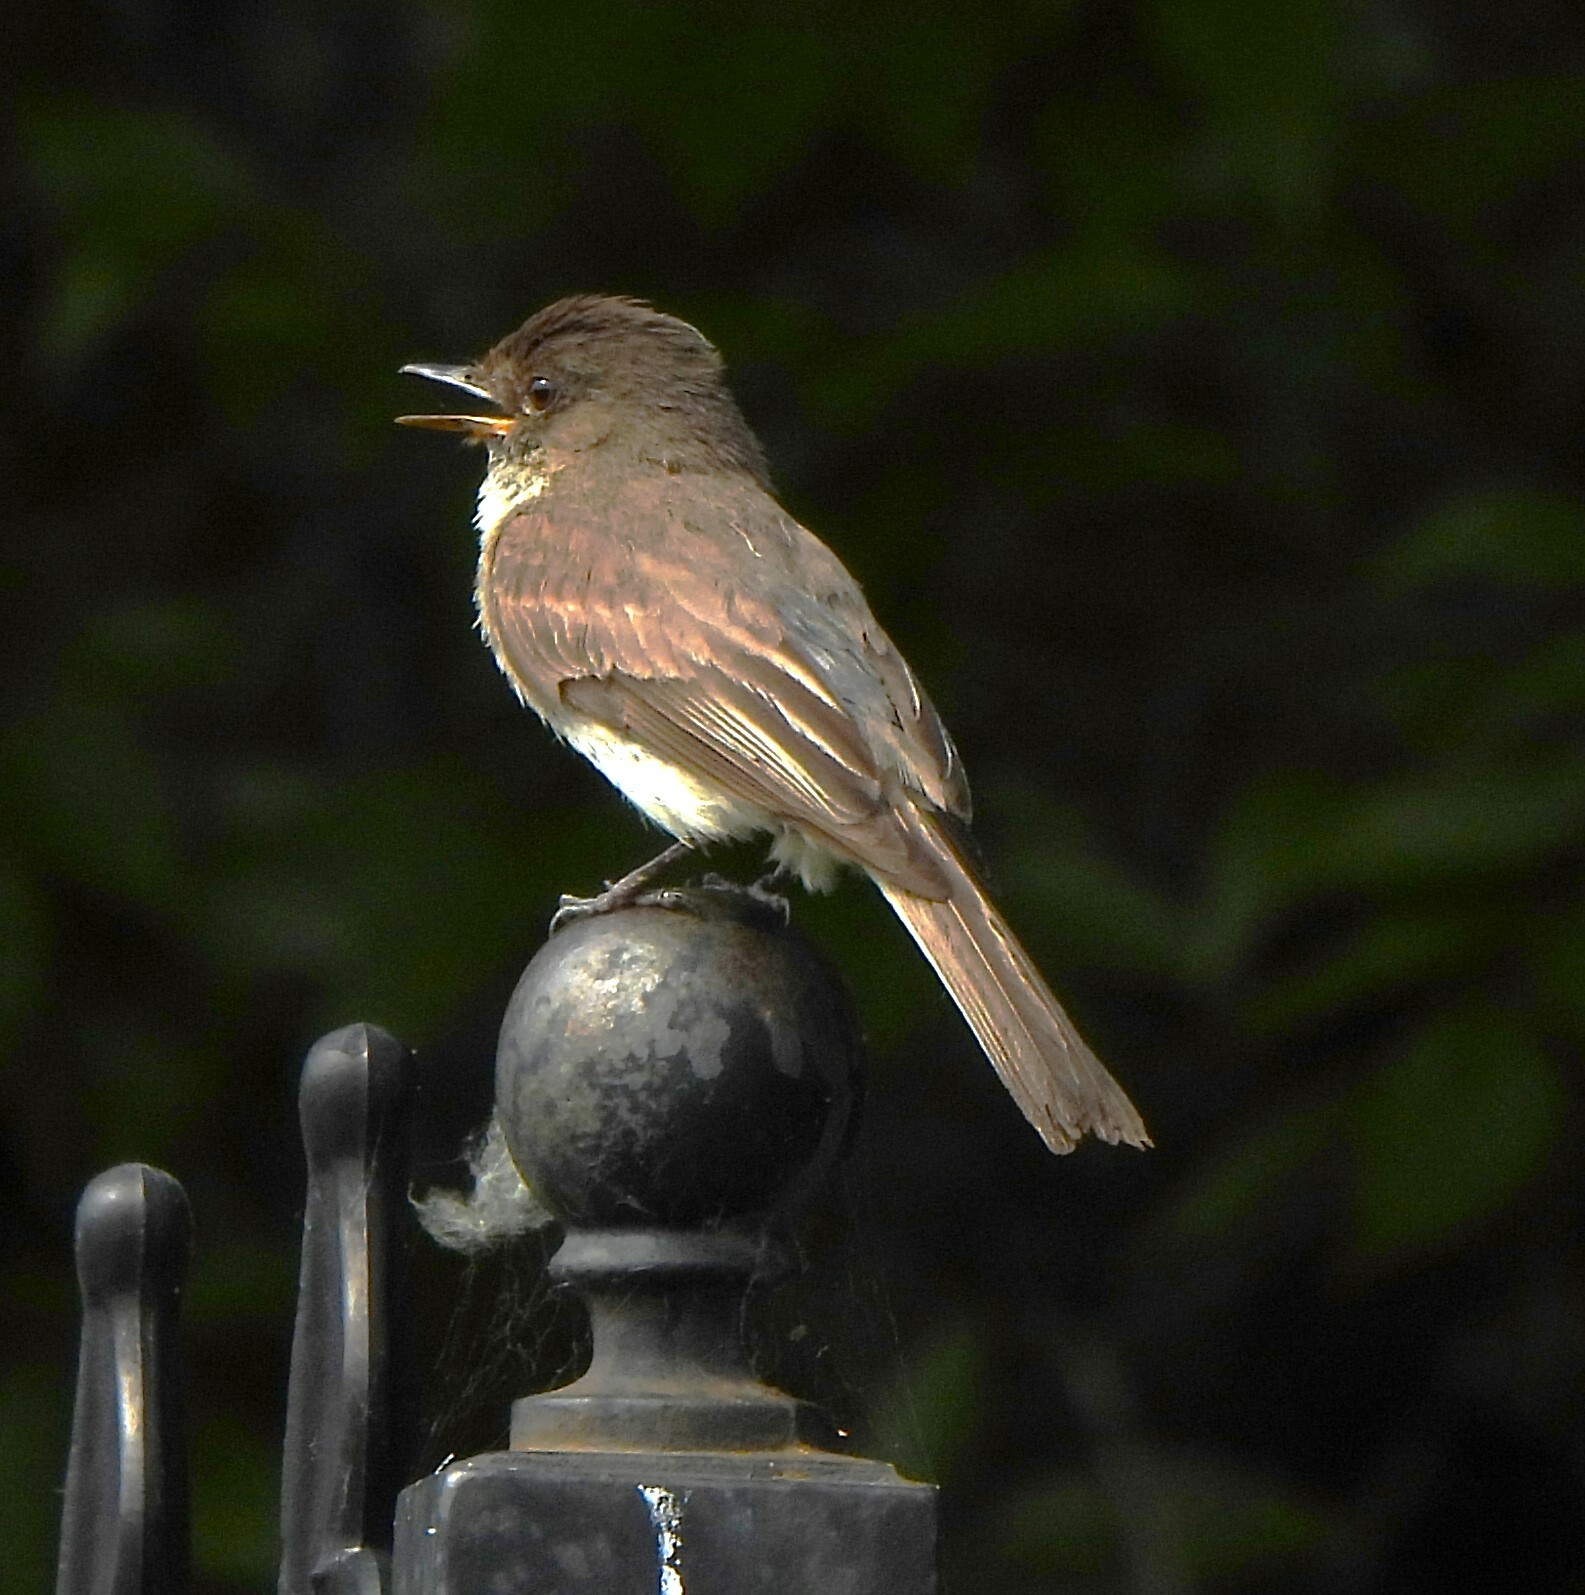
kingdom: Animalia
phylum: Chordata
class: Aves
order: Passeriformes
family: Tyrannidae
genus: Sayornis
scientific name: Sayornis phoebe
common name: Eastern phoebe
